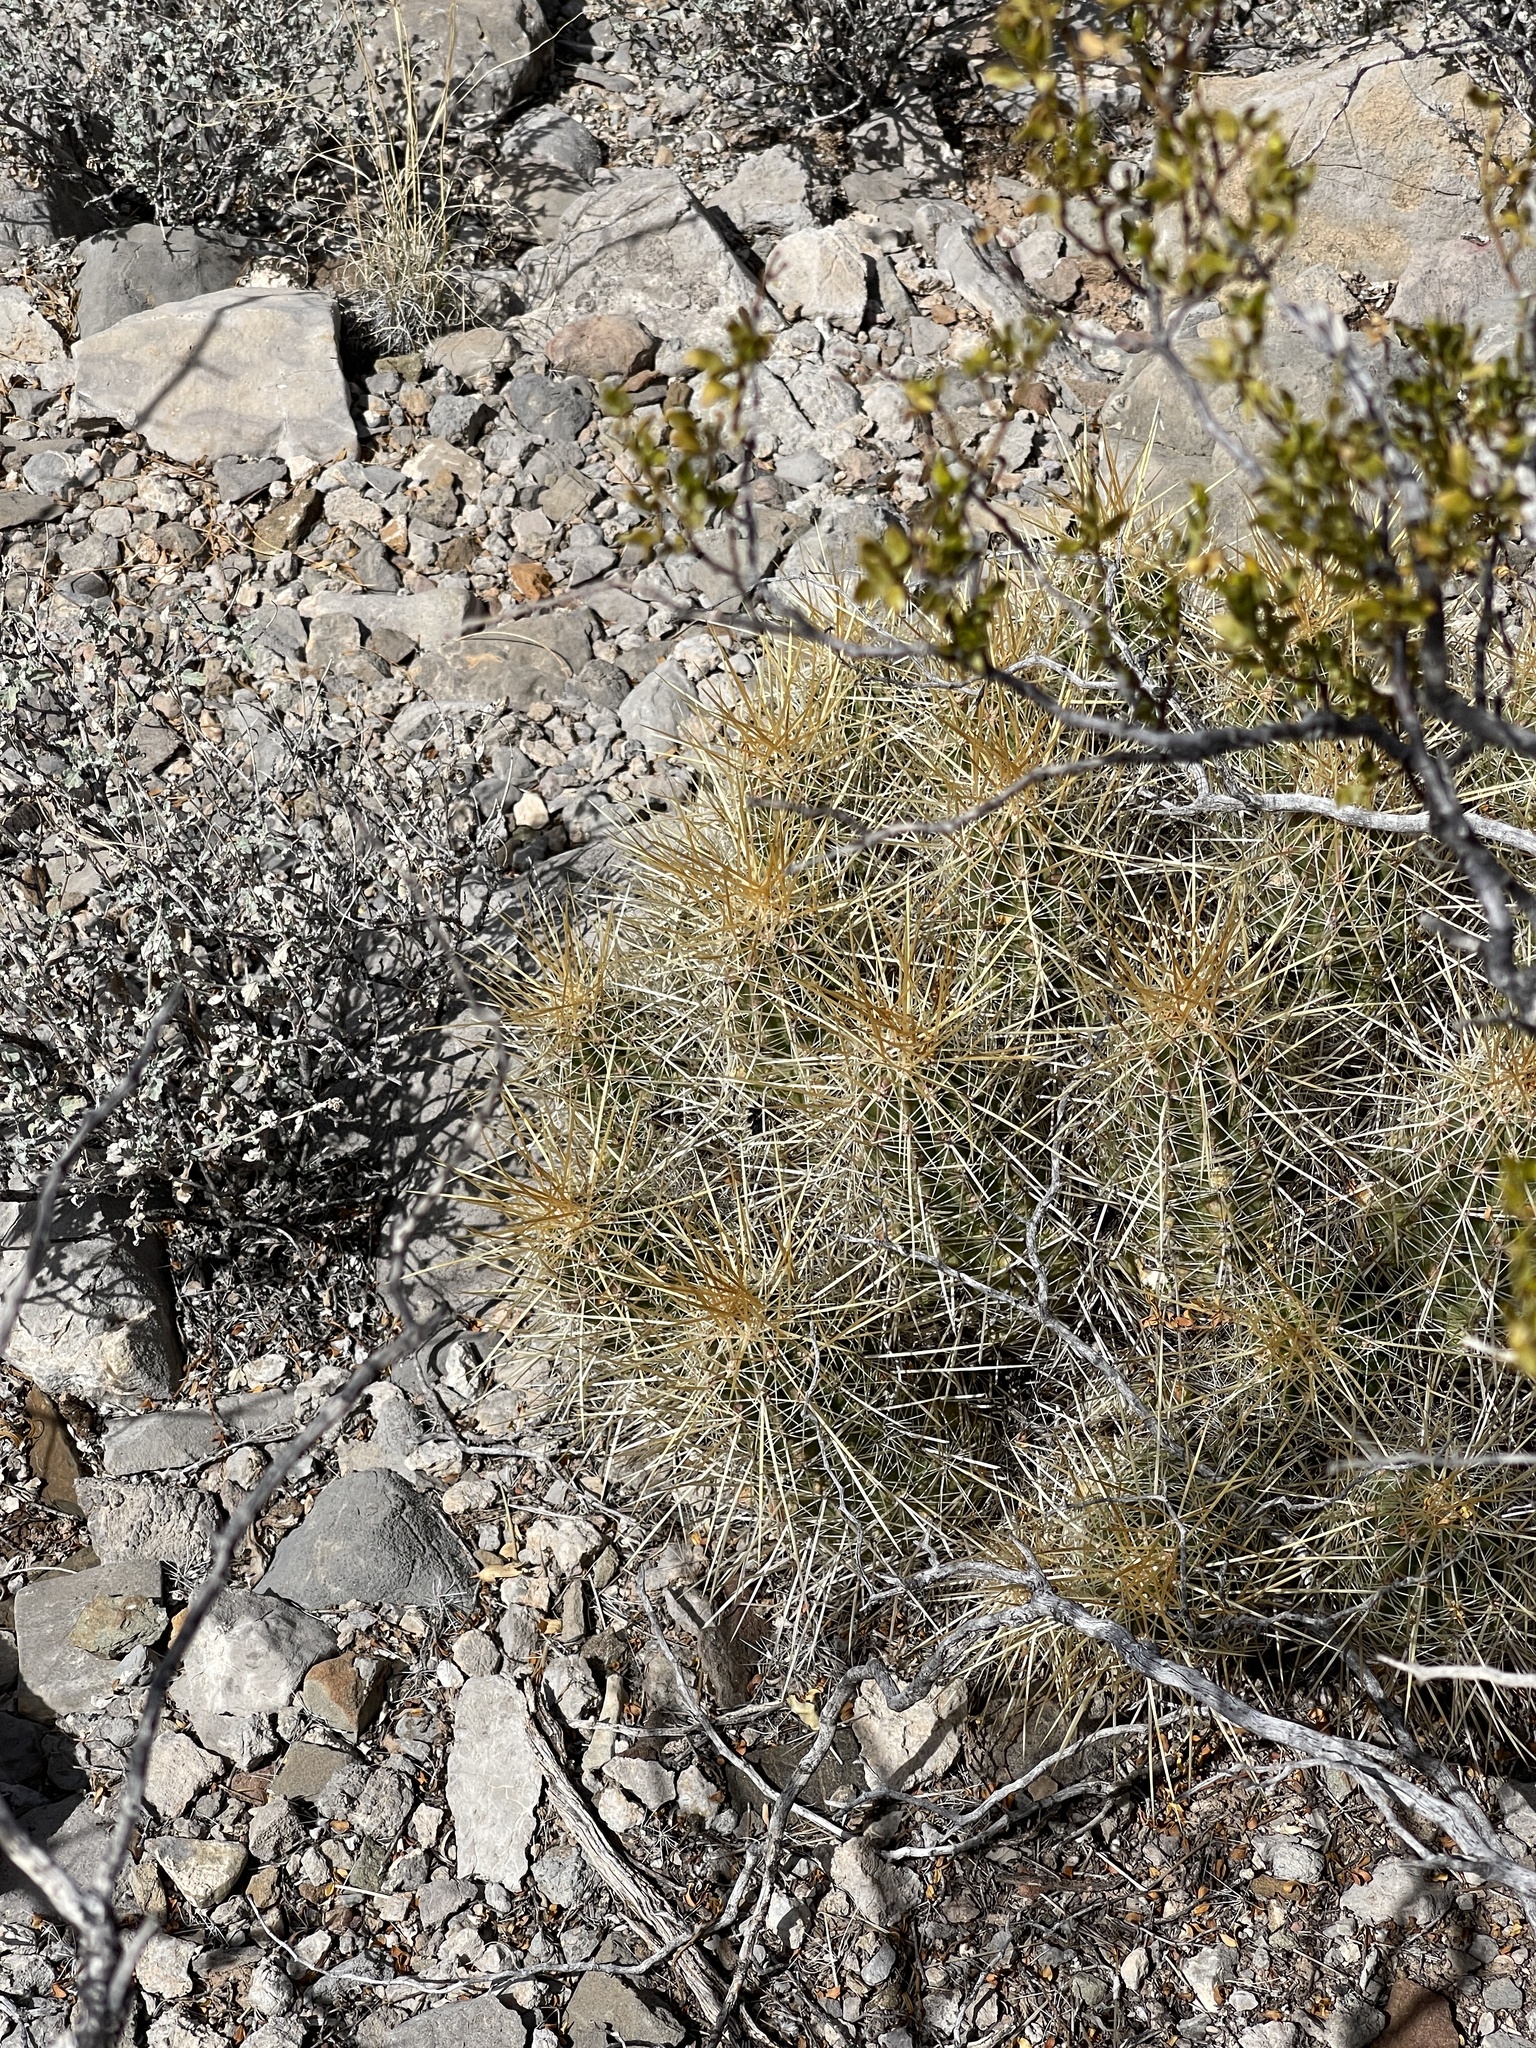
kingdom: Plantae
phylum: Tracheophyta
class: Magnoliopsida
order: Caryophyllales
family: Cactaceae
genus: Echinocereus
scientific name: Echinocereus stramineus
